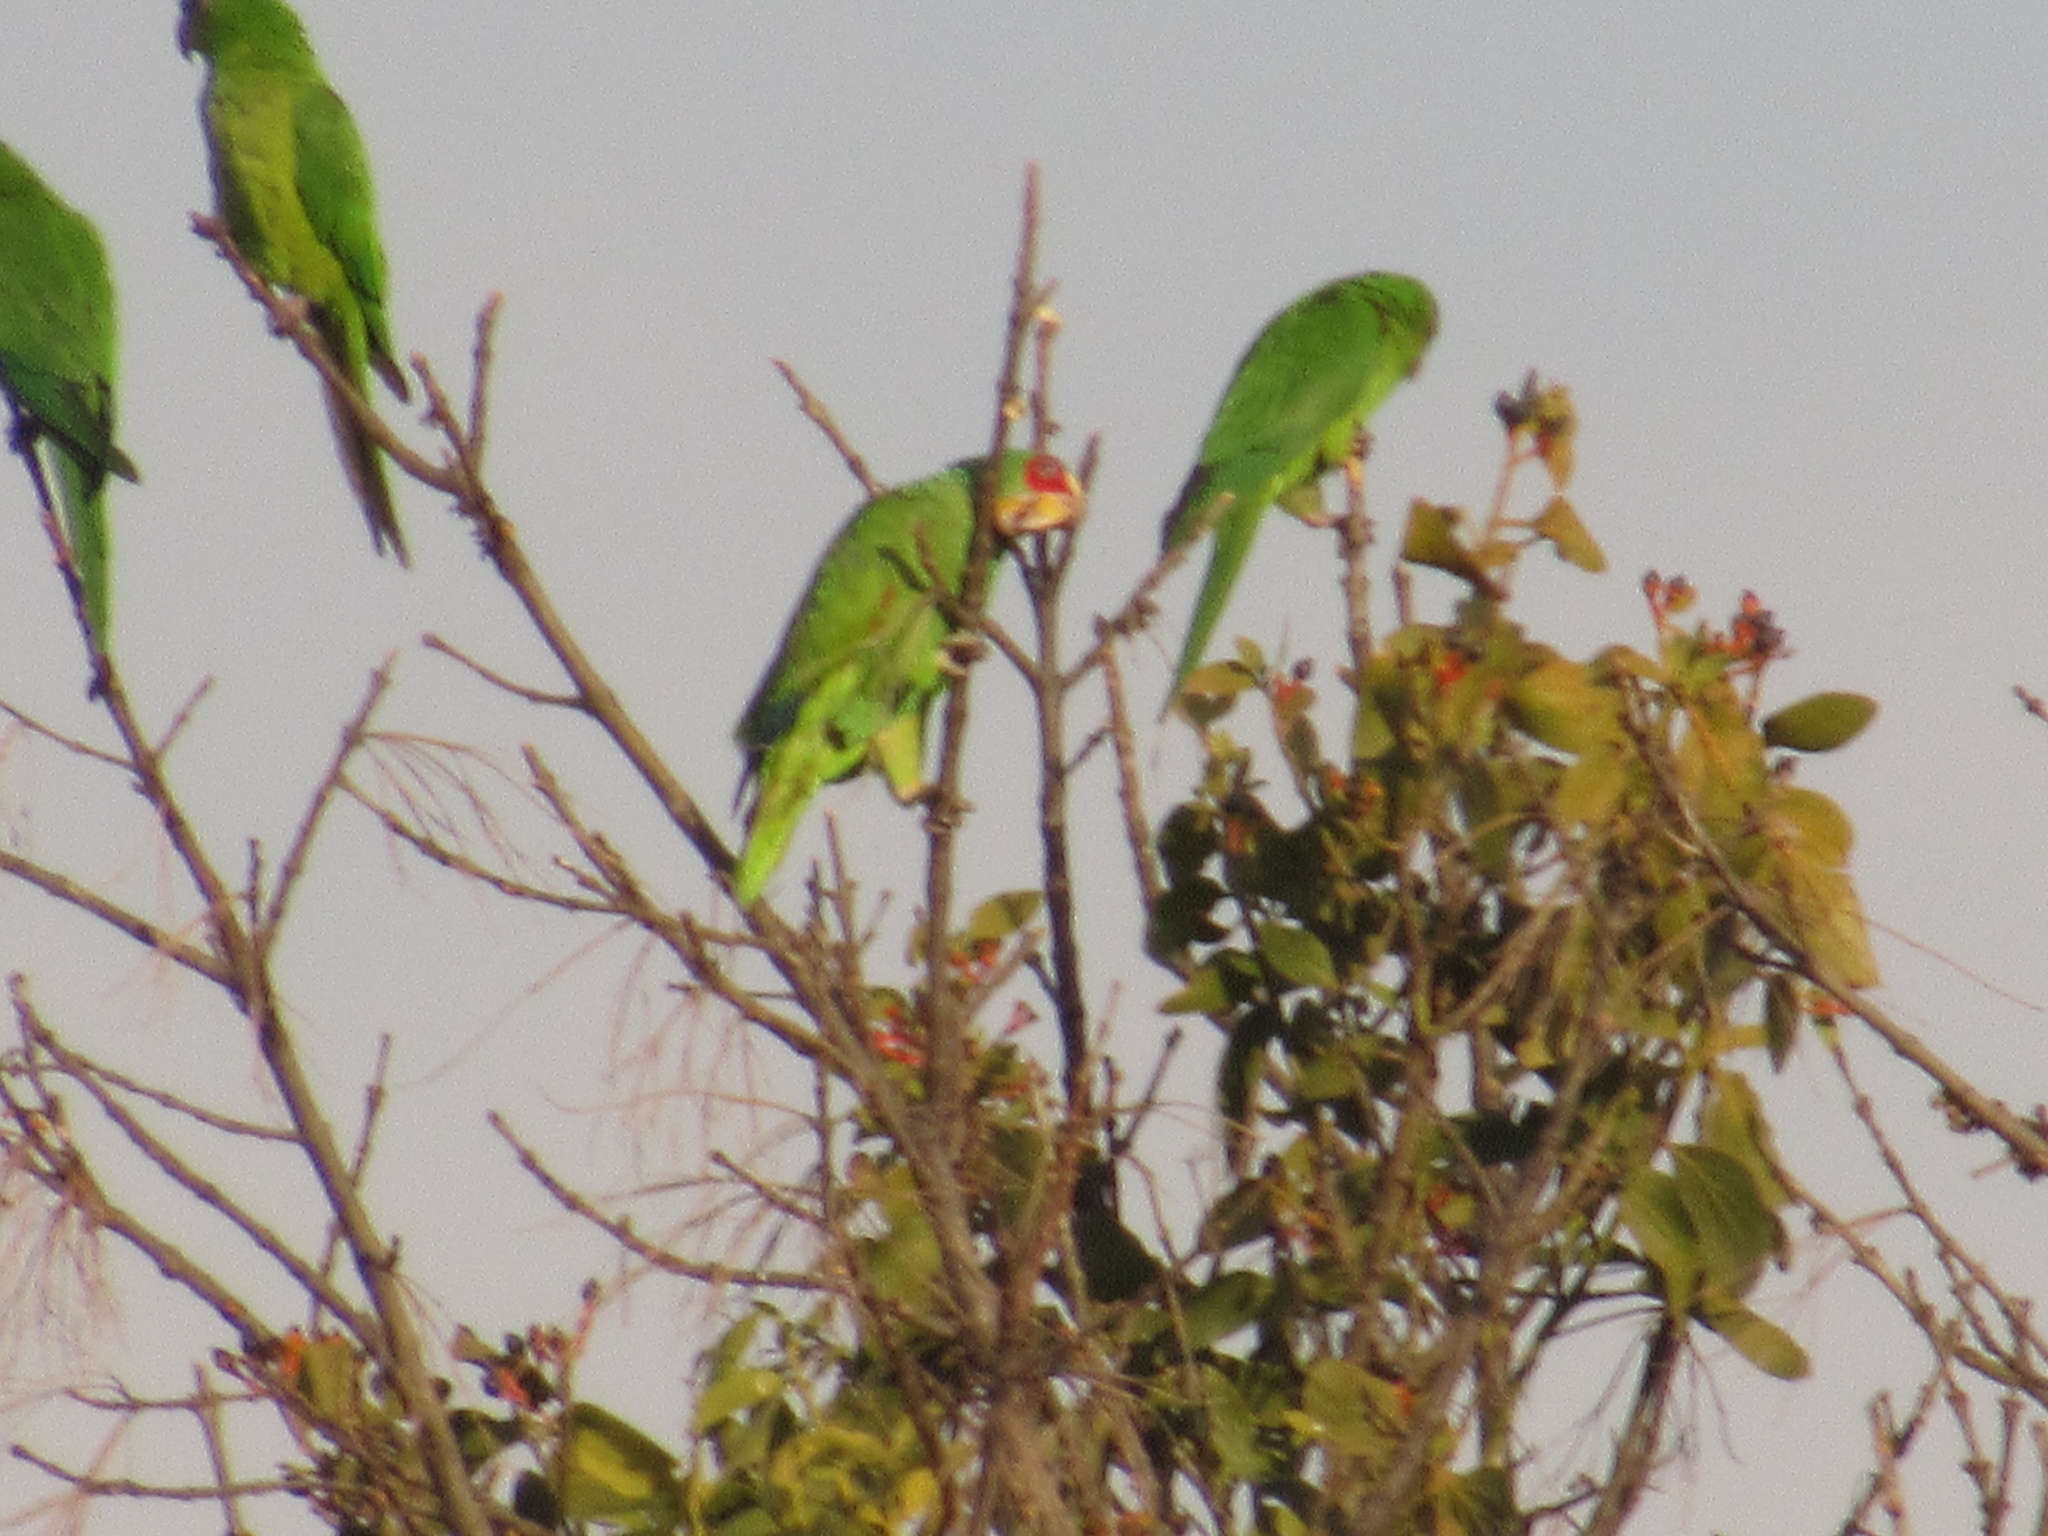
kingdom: Animalia
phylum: Chordata
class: Aves
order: Psittaciformes
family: Psittacidae
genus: Amazona
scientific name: Amazona albifrons
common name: White-fronted amazon
